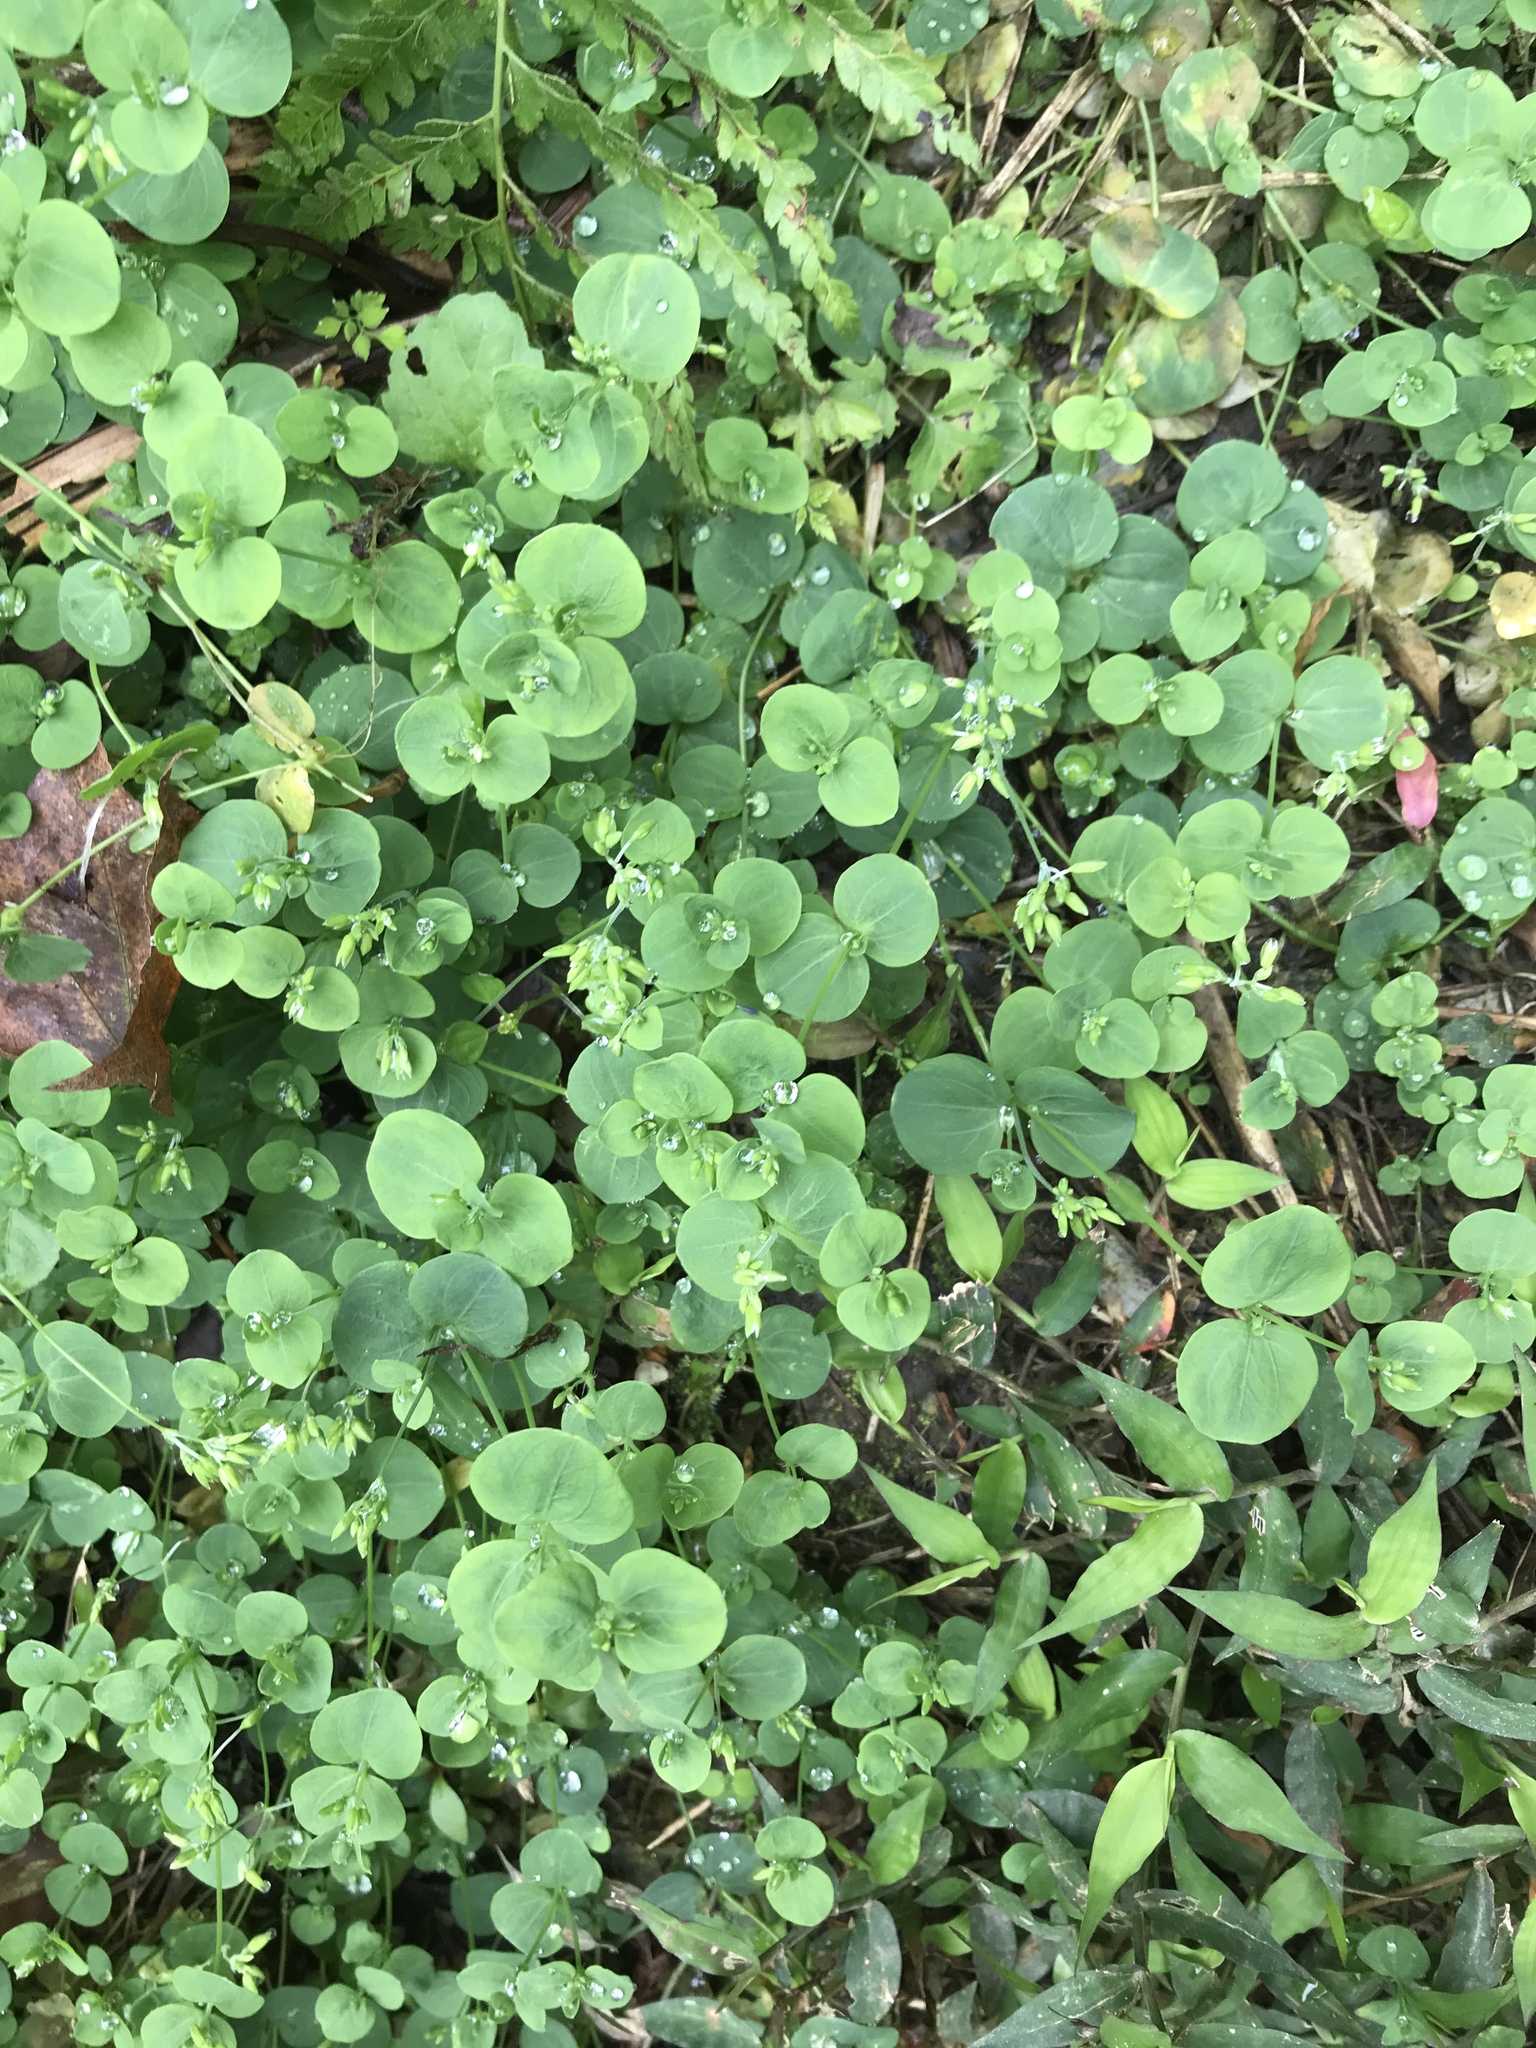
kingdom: Plantae
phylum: Tracheophyta
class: Magnoliopsida
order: Caryophyllales
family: Caryophyllaceae
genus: Drymaria
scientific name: Drymaria cordata
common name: Whitesnow
